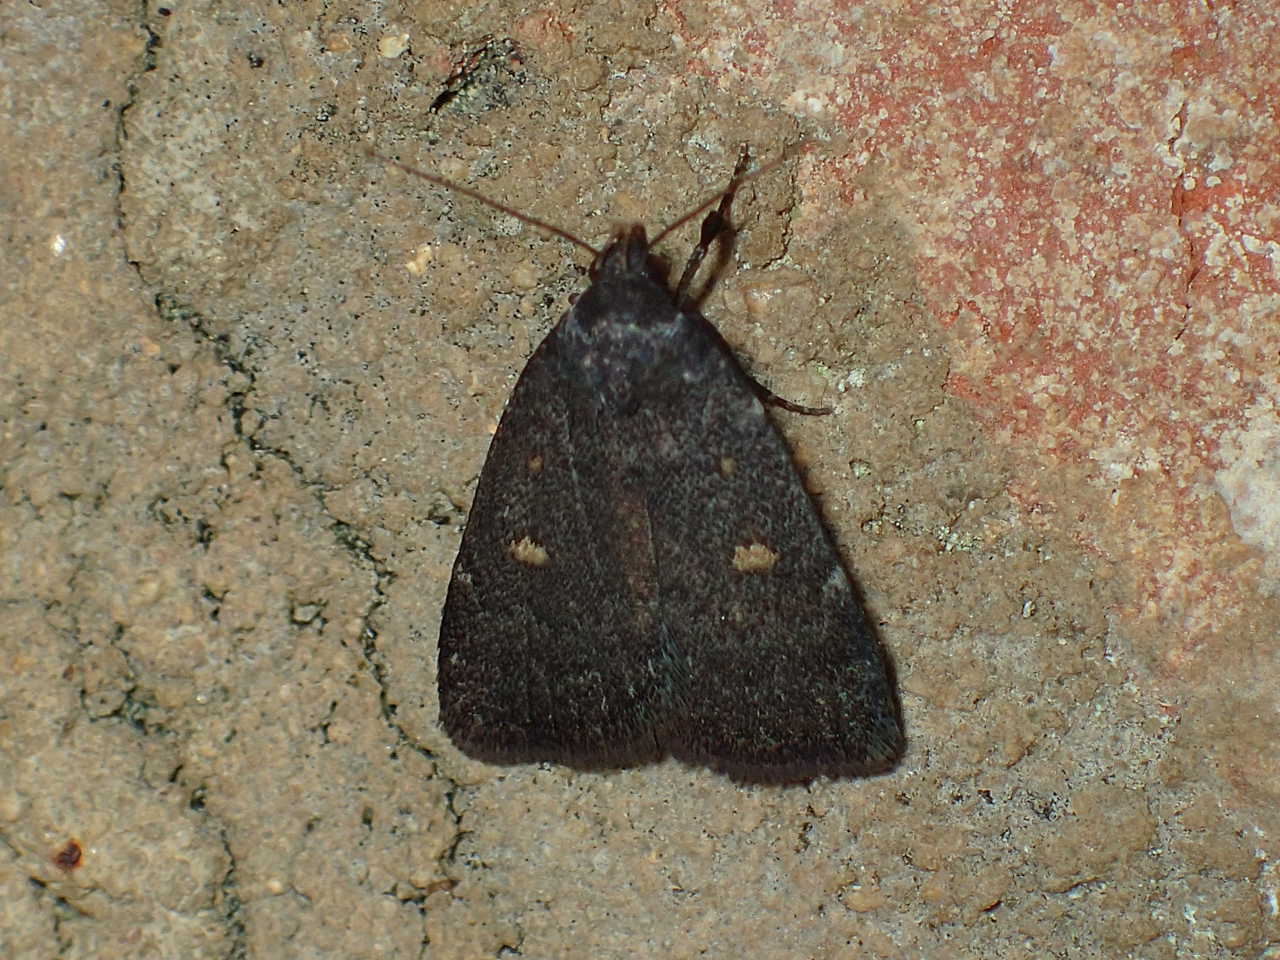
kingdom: Animalia
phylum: Arthropoda
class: Insecta
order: Lepidoptera
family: Erebidae
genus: Idia
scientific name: Idia diminuendis
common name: Orange-spotted idia moth
